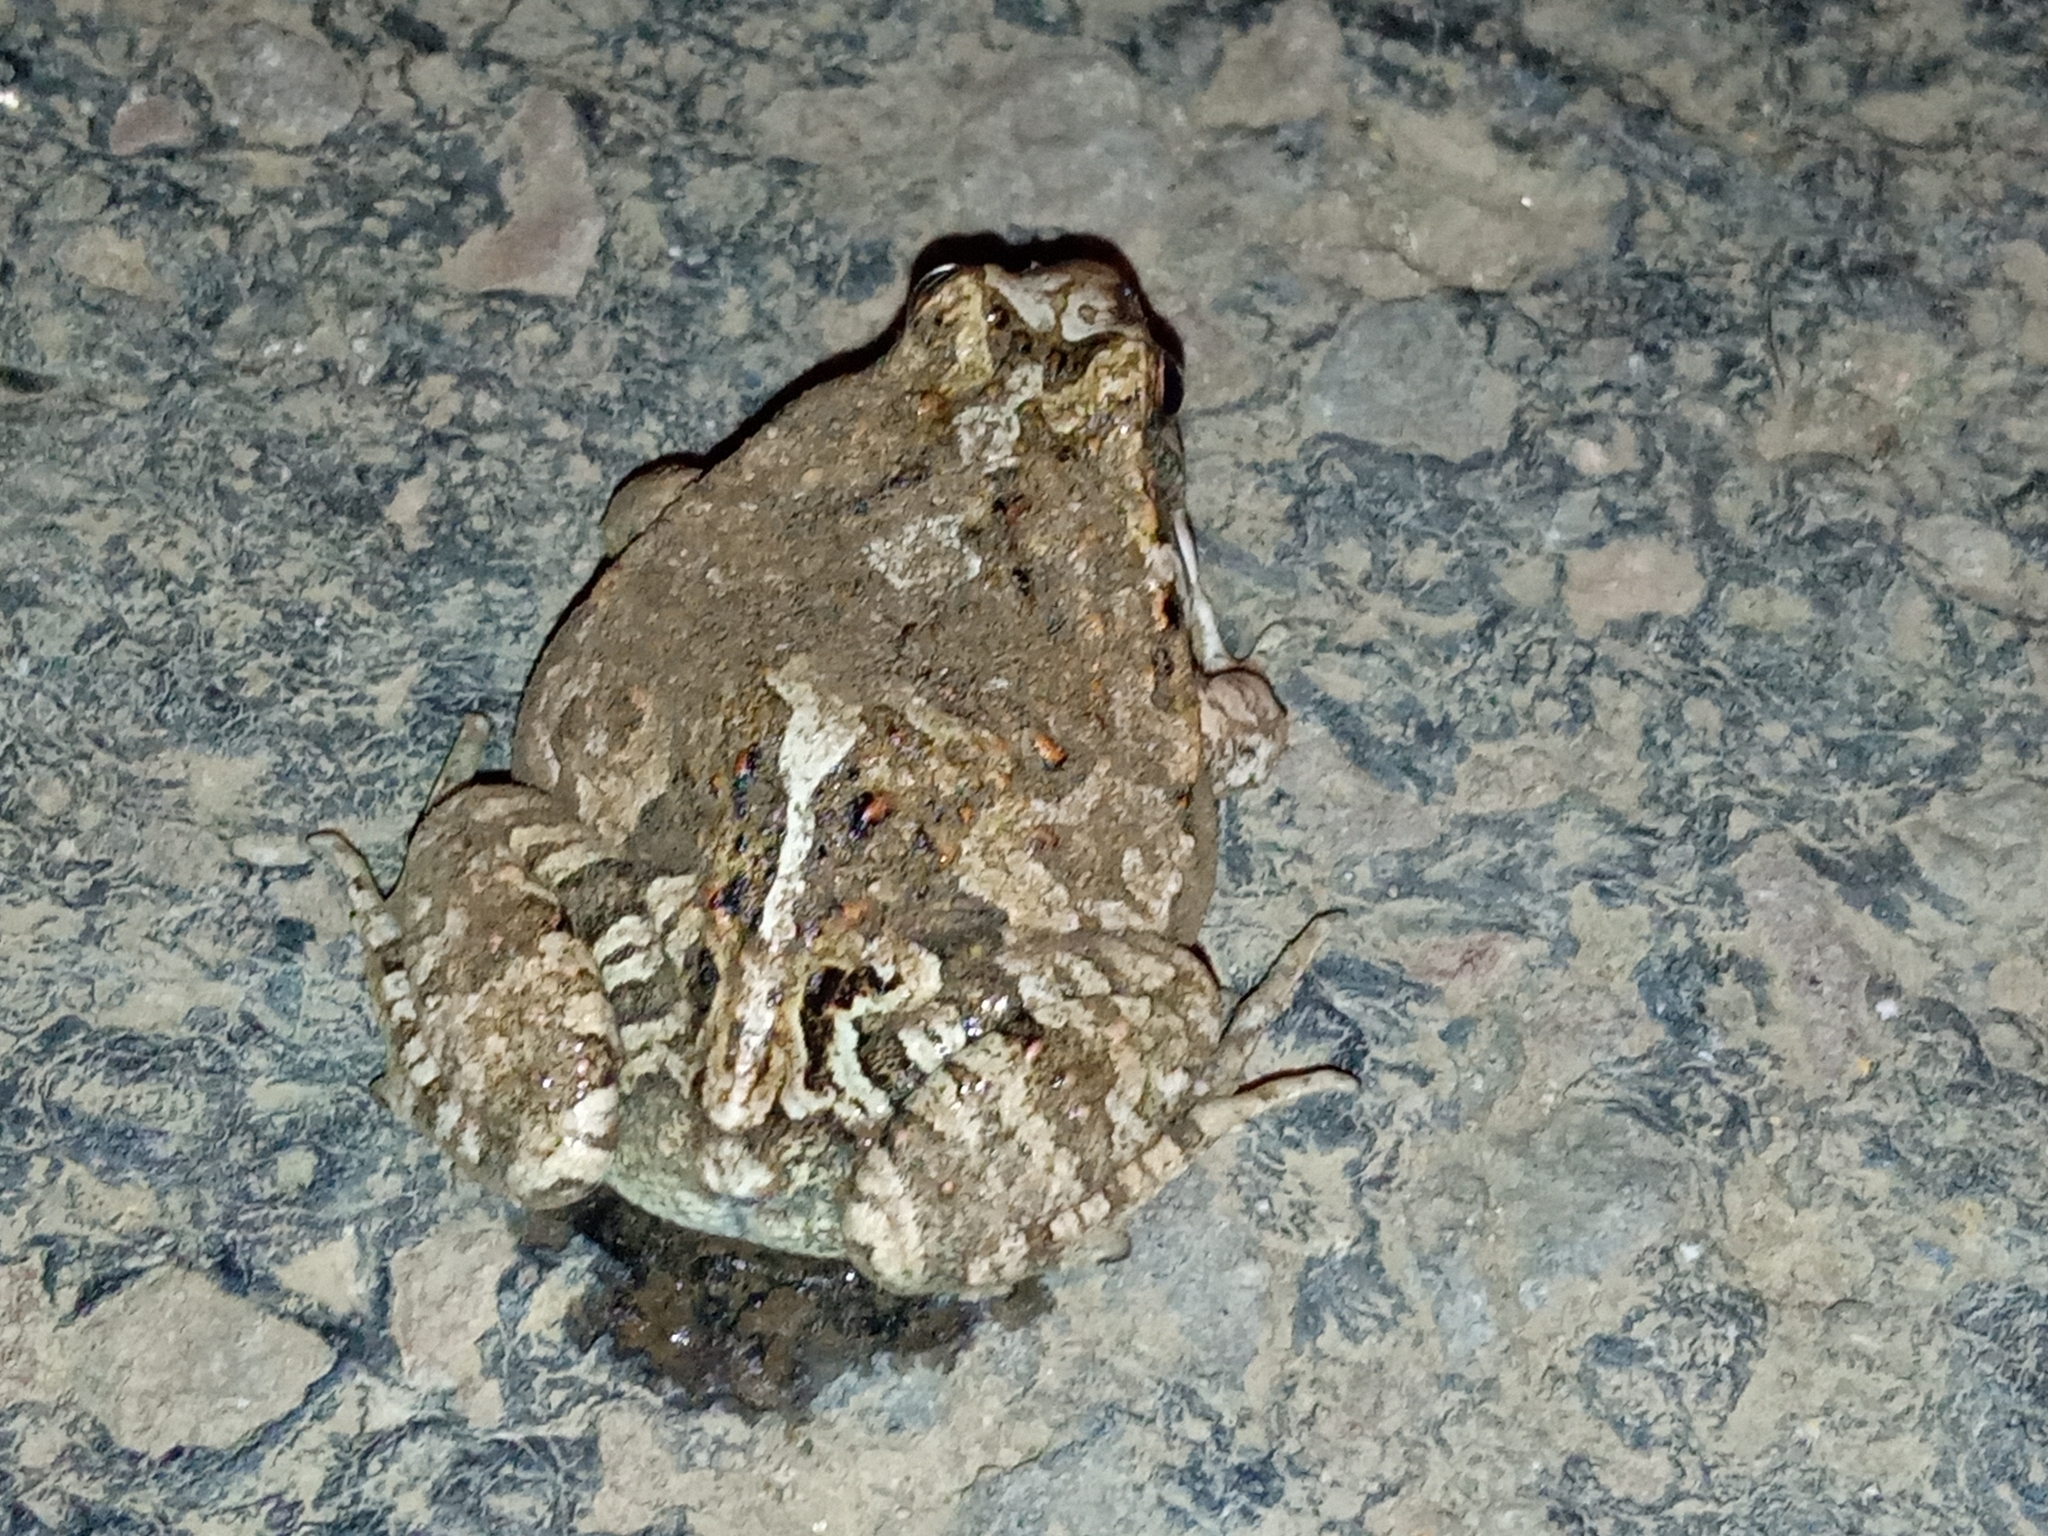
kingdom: Animalia
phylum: Chordata
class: Amphibia
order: Anura
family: Leptodactylidae
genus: Physalaemus
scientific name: Physalaemus biligonigerus
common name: Weeping frog
